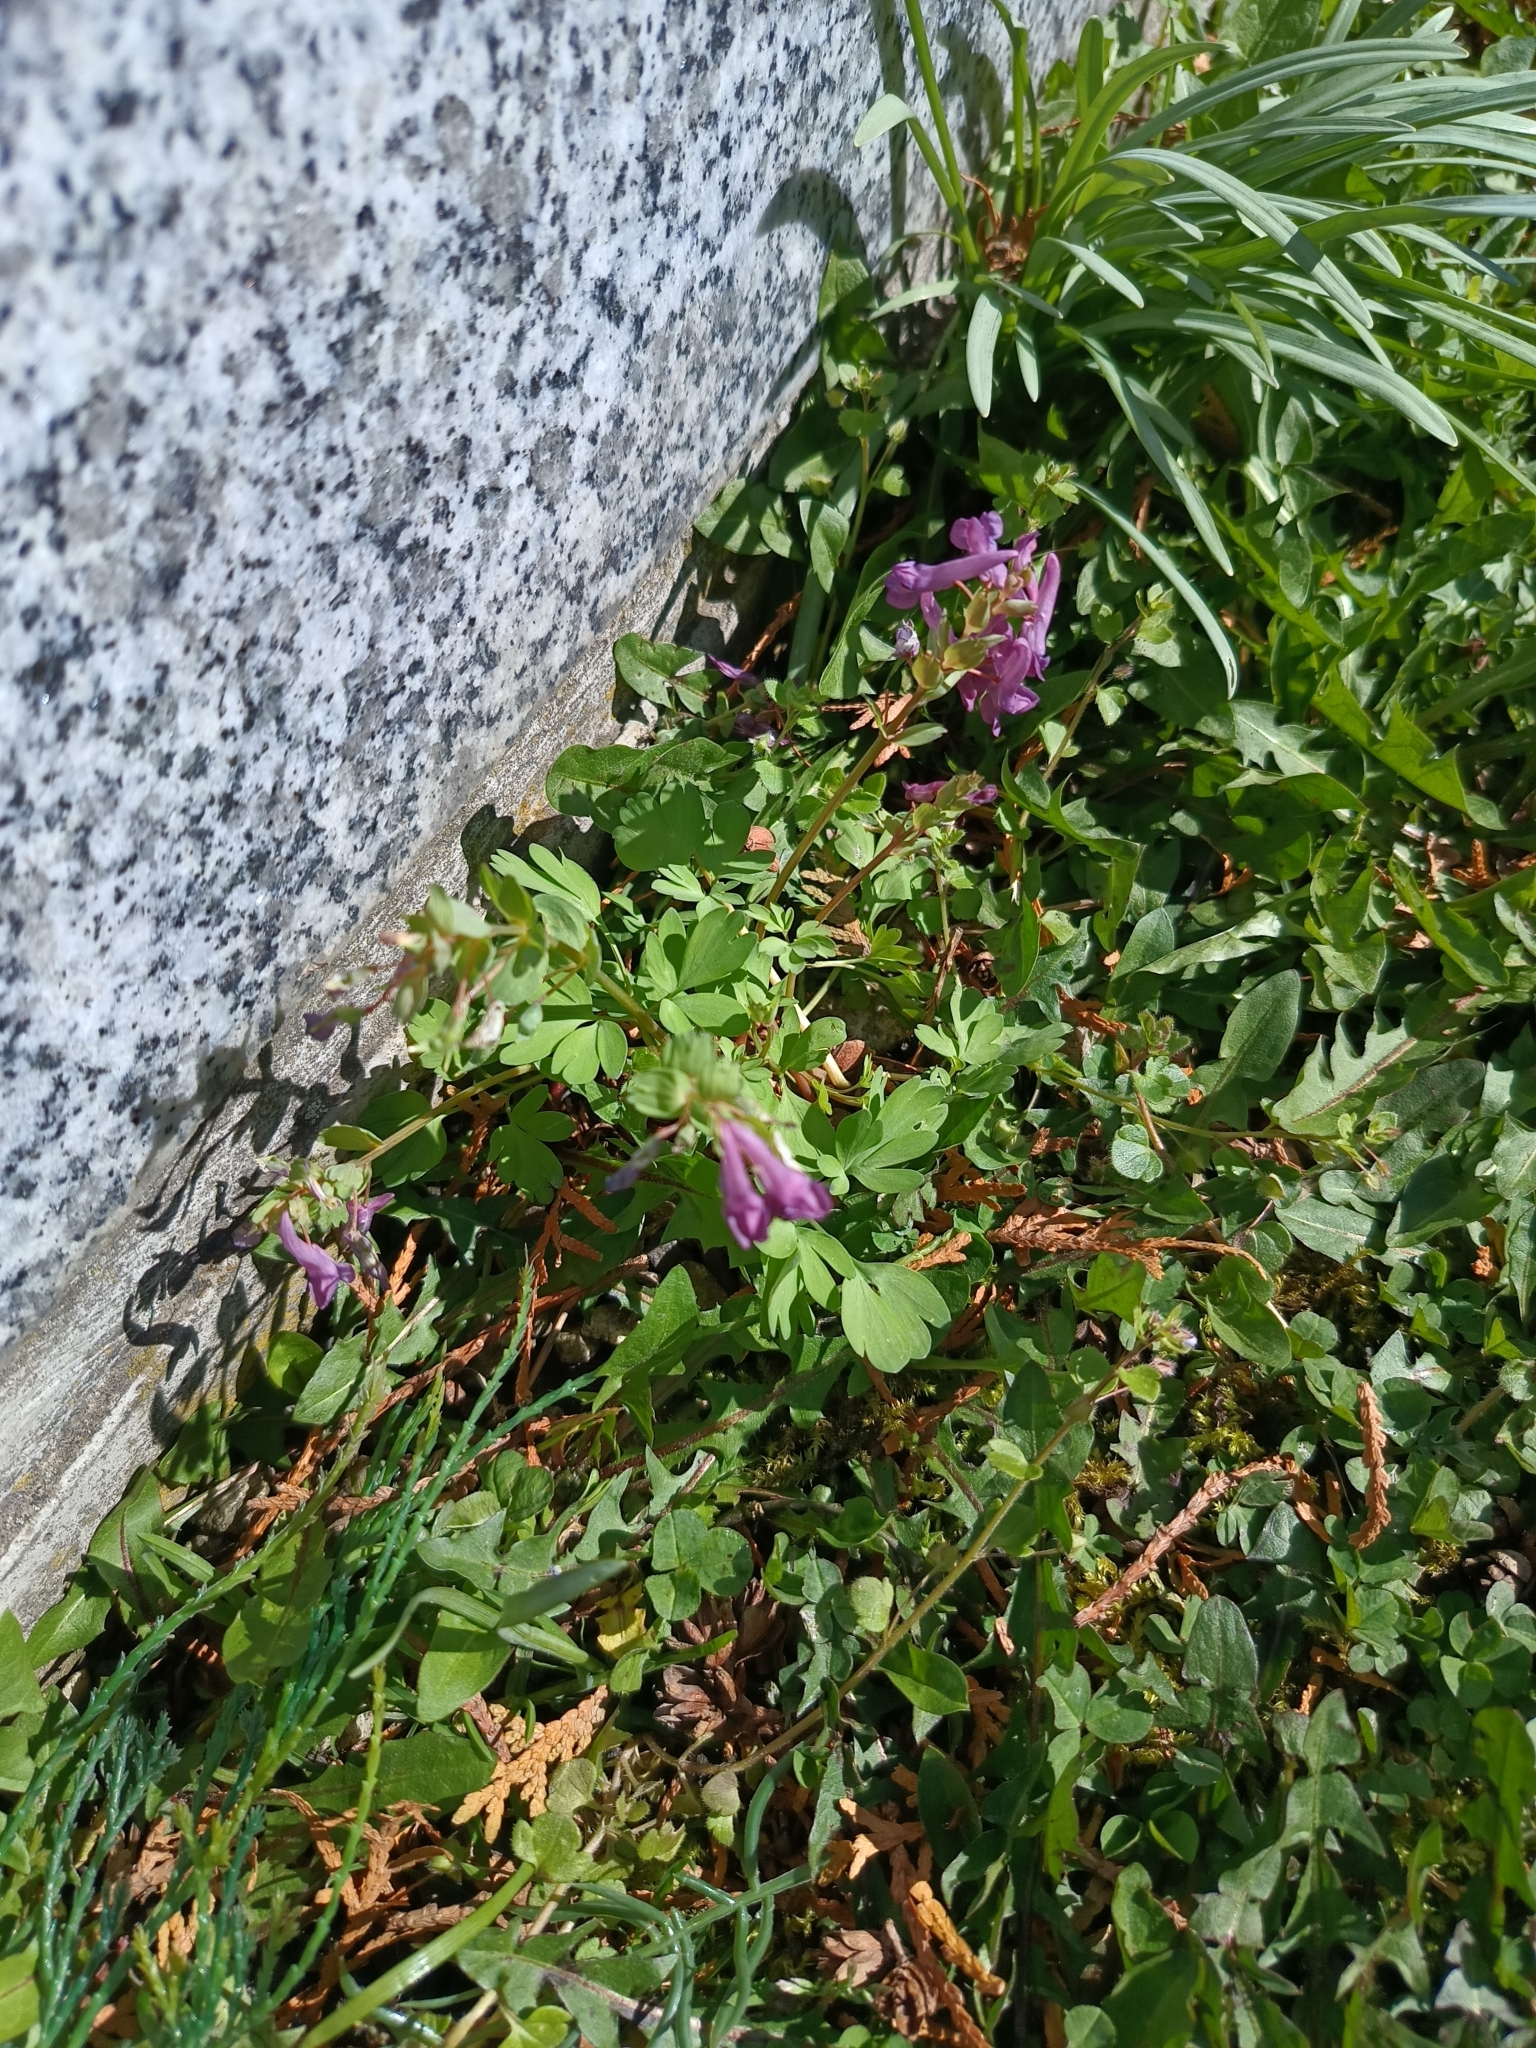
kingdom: Plantae
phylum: Tracheophyta
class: Magnoliopsida
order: Ranunculales
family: Papaveraceae
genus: Corydalis
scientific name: Corydalis solida
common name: Bird-in-a-bush
